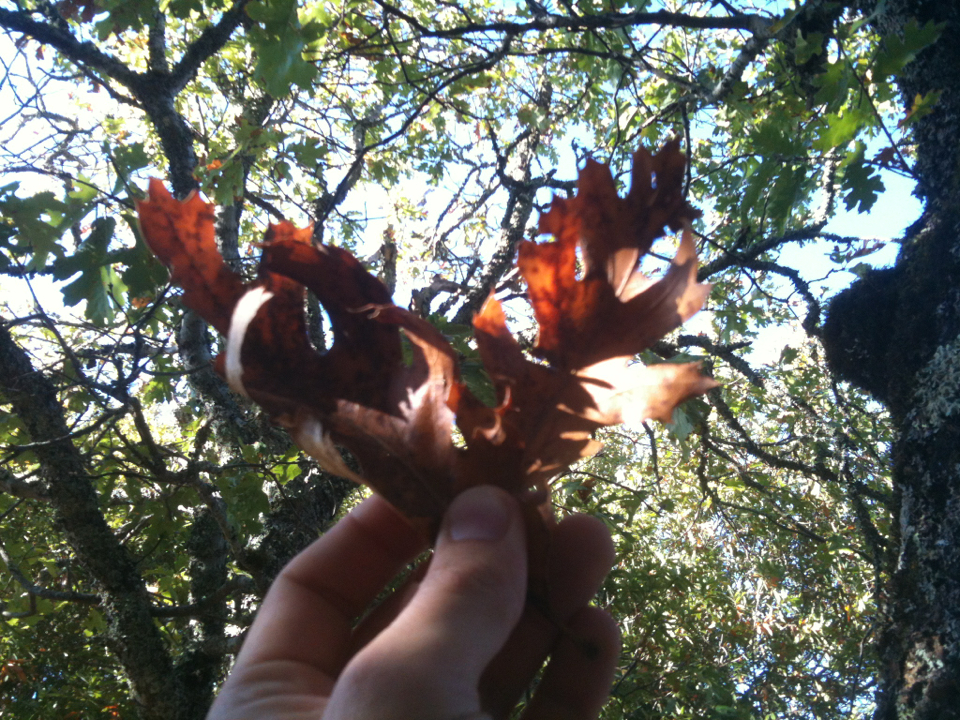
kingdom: Plantae
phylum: Tracheophyta
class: Magnoliopsida
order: Fagales
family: Fagaceae
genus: Quercus
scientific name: Quercus kelloggii
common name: California black oak
